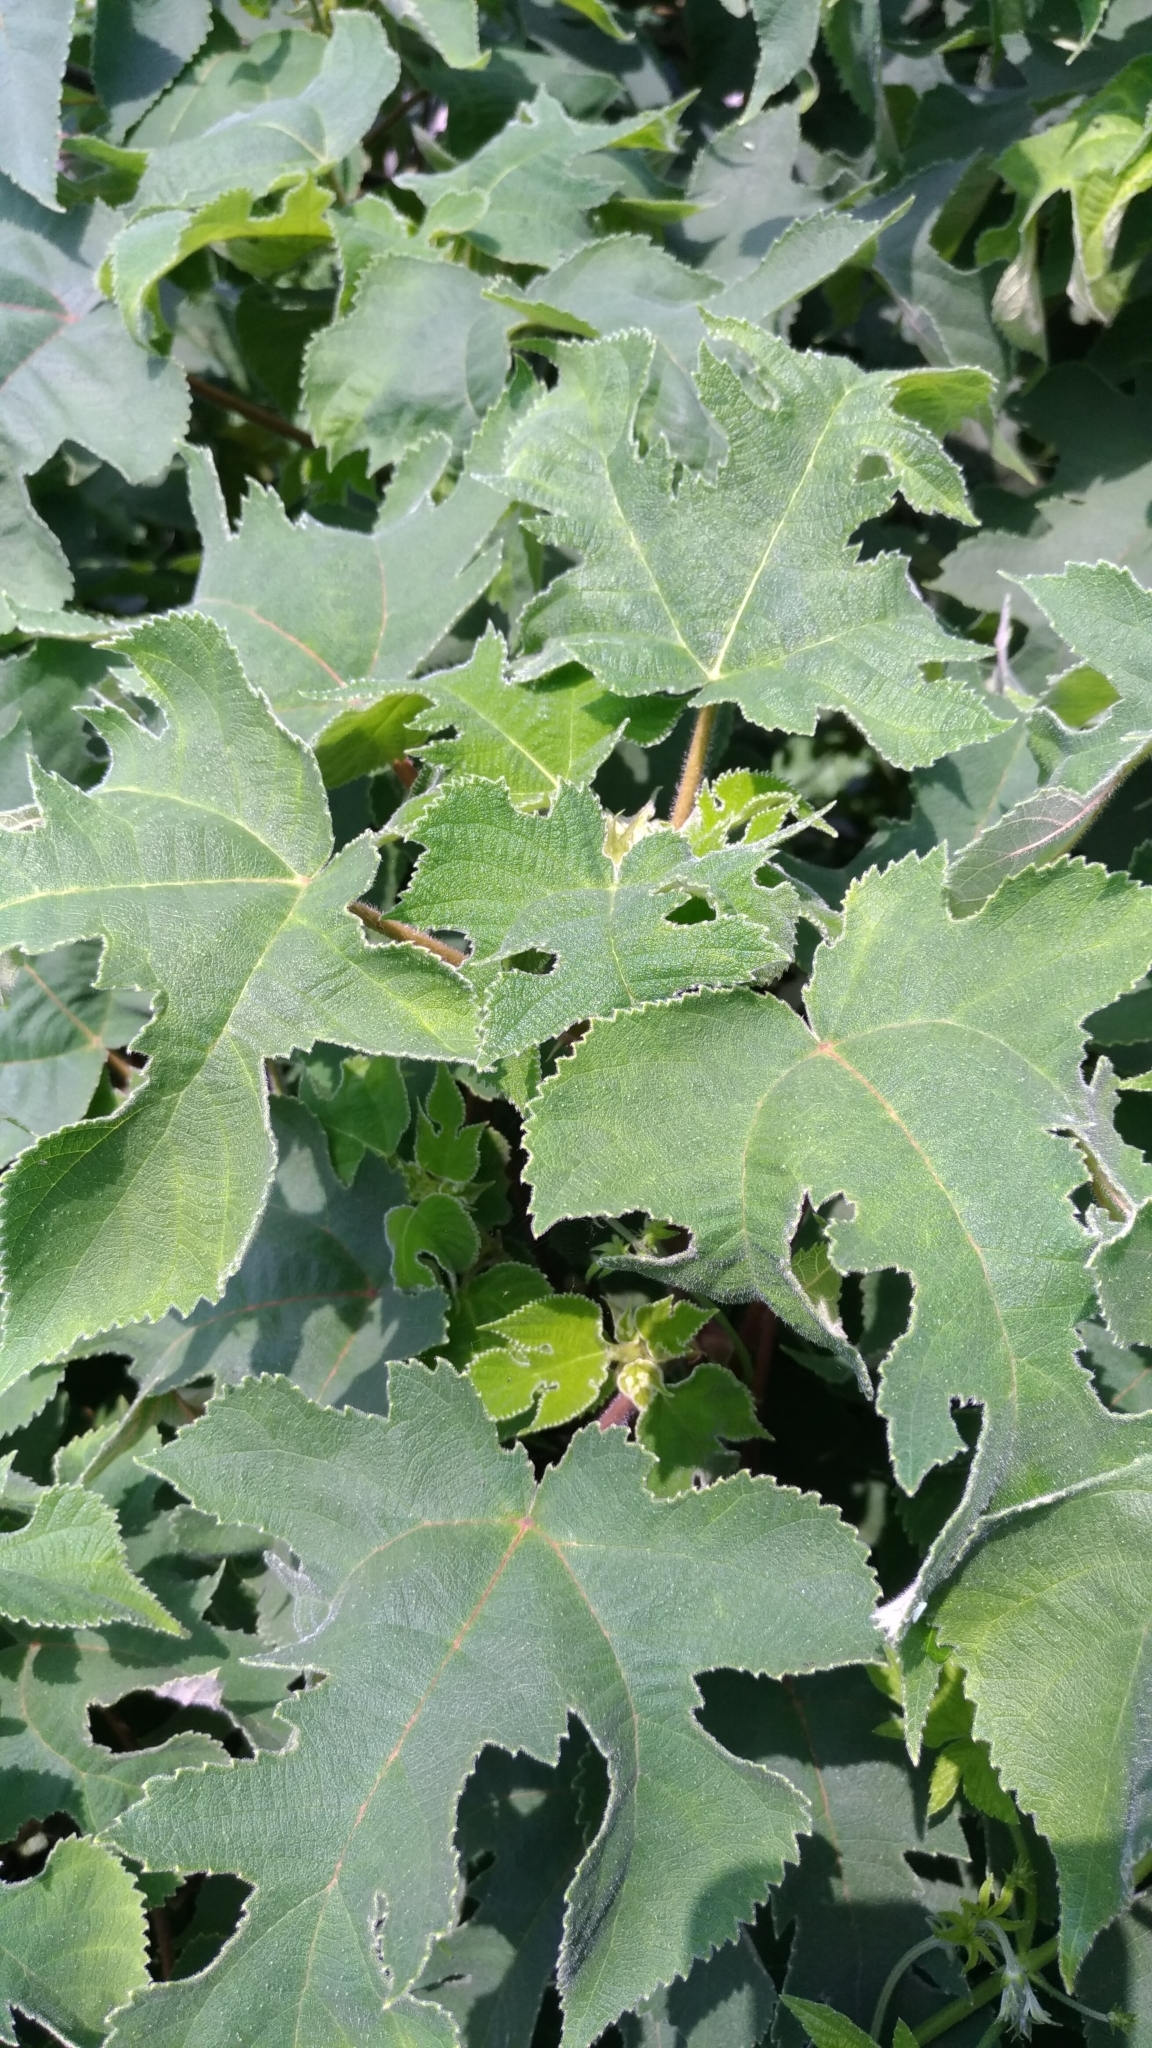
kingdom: Plantae
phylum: Tracheophyta
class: Magnoliopsida
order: Rosales
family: Moraceae
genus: Broussonetia
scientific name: Broussonetia papyrifera
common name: Paper mulberry
